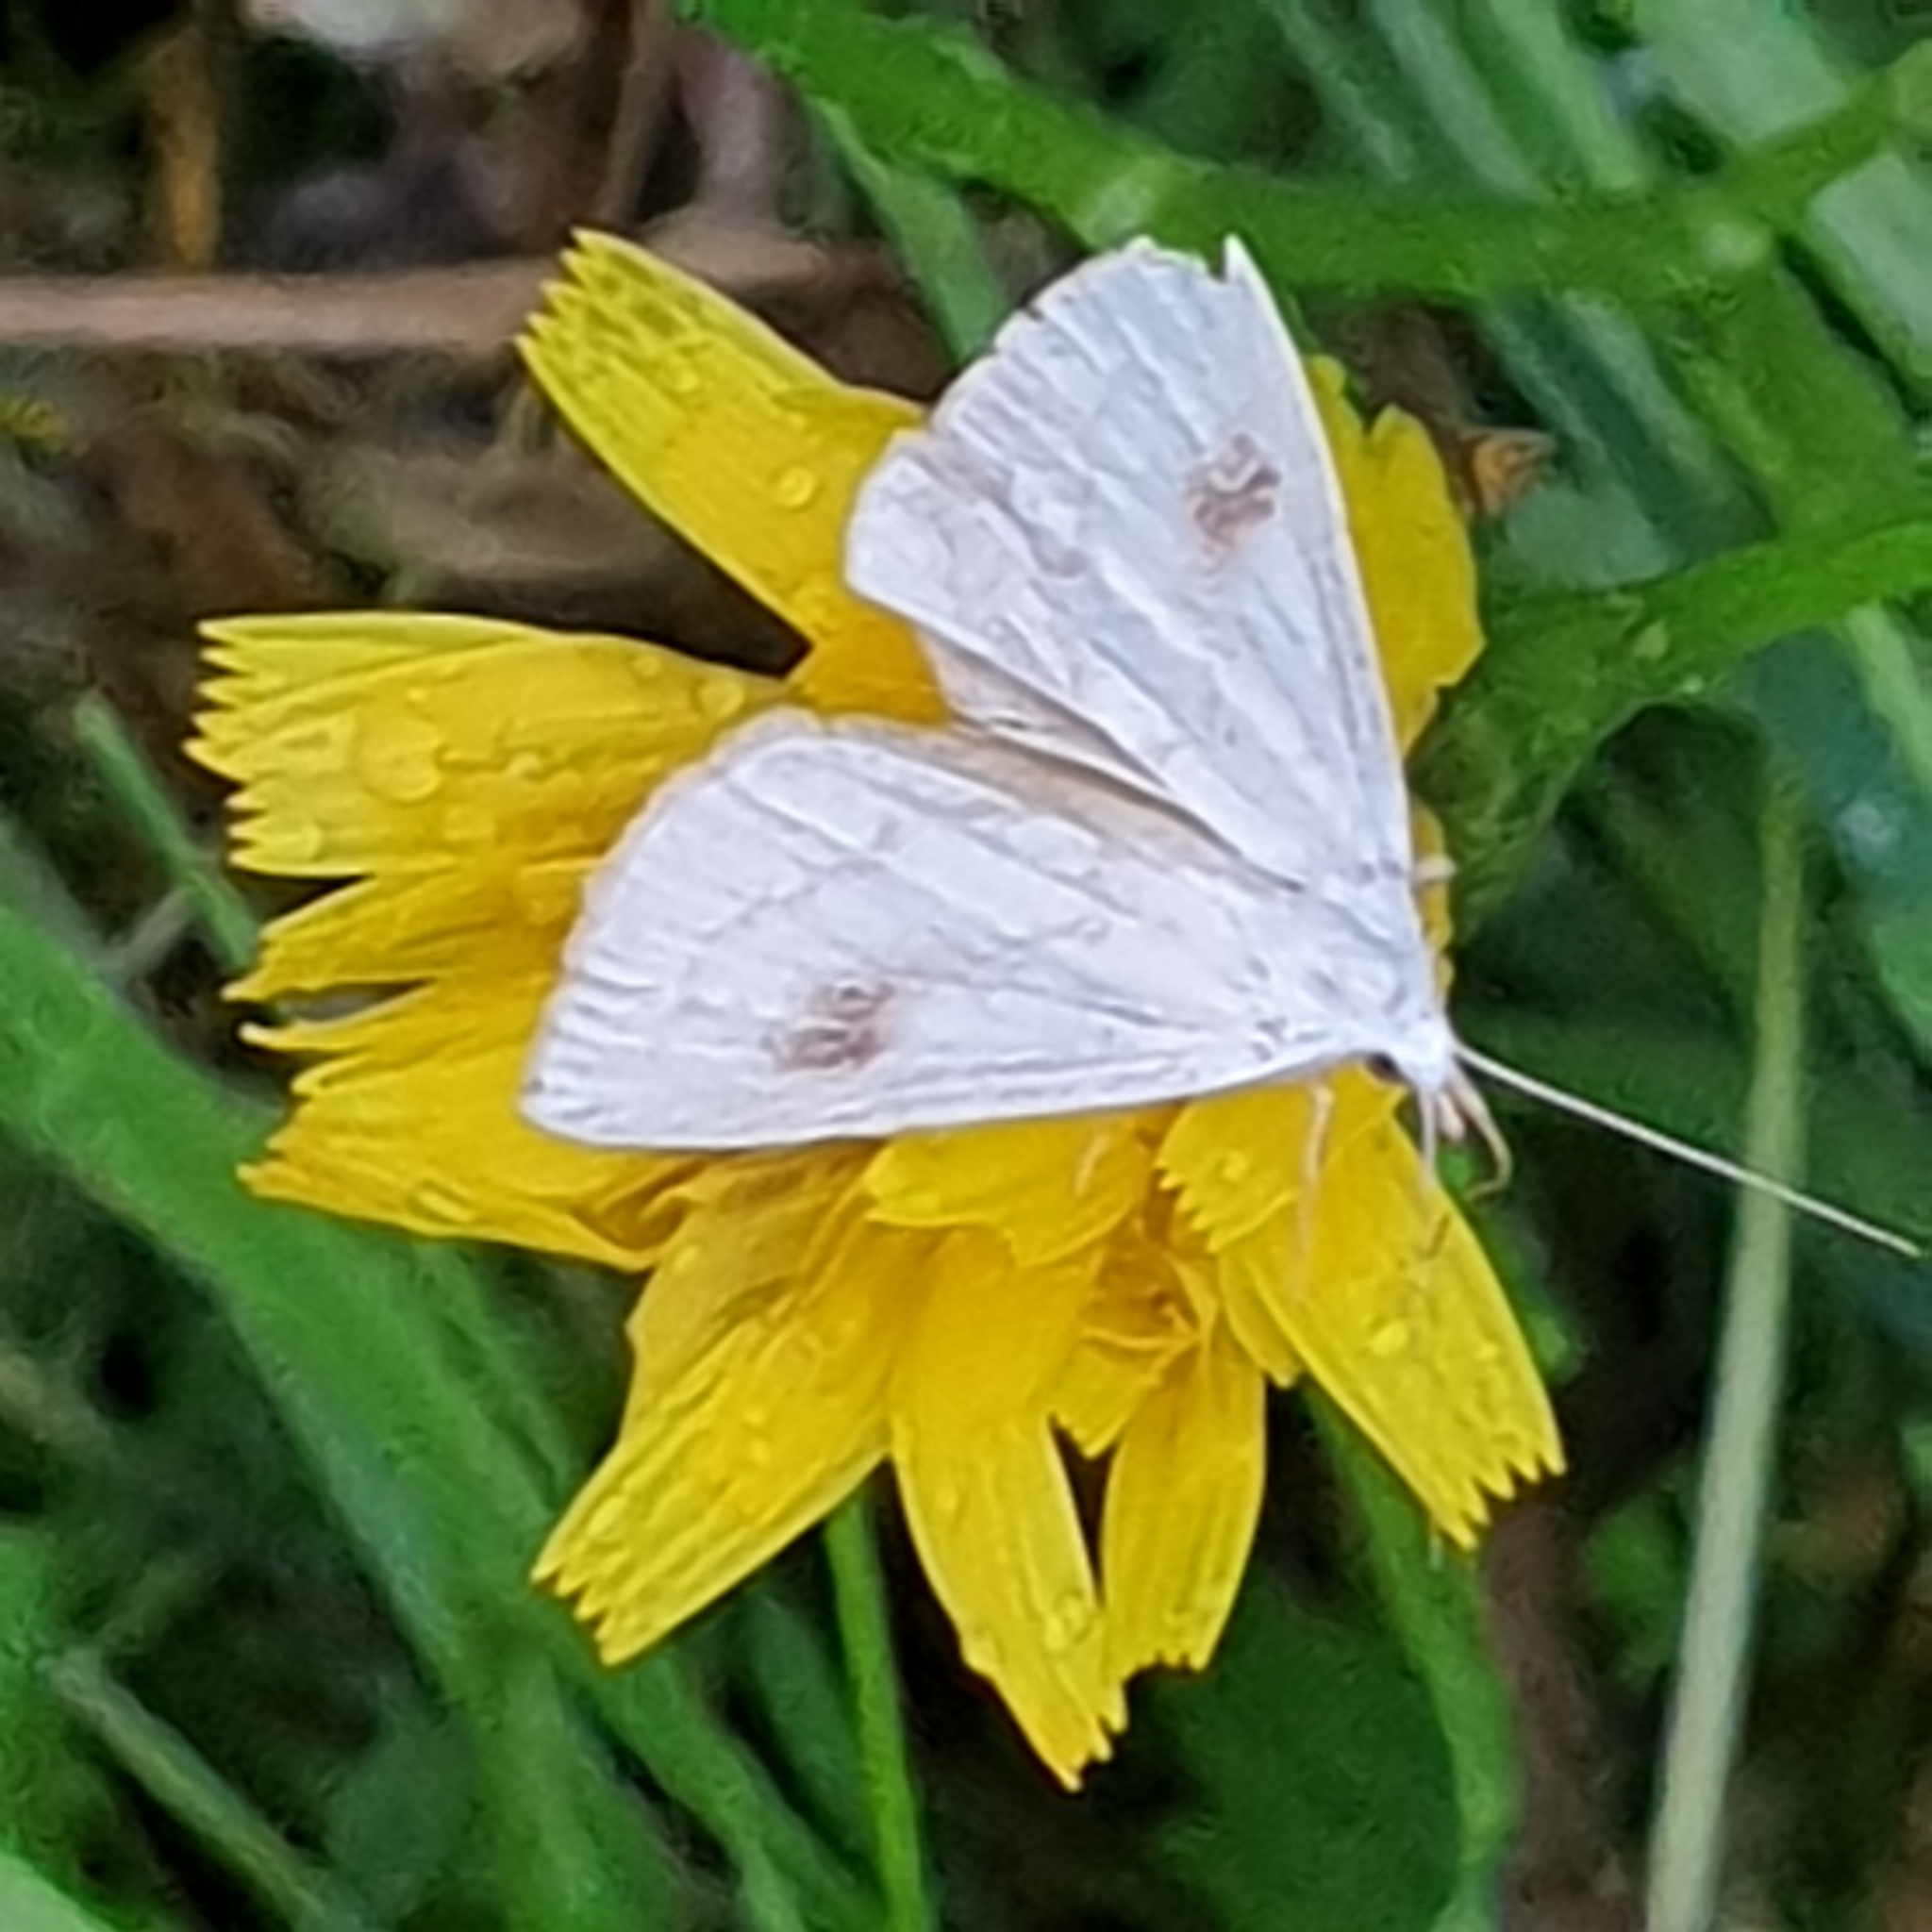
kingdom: Animalia
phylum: Arthropoda
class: Insecta
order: Lepidoptera
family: Erebidae
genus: Rivula
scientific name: Rivula sericealis
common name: Straw dot
